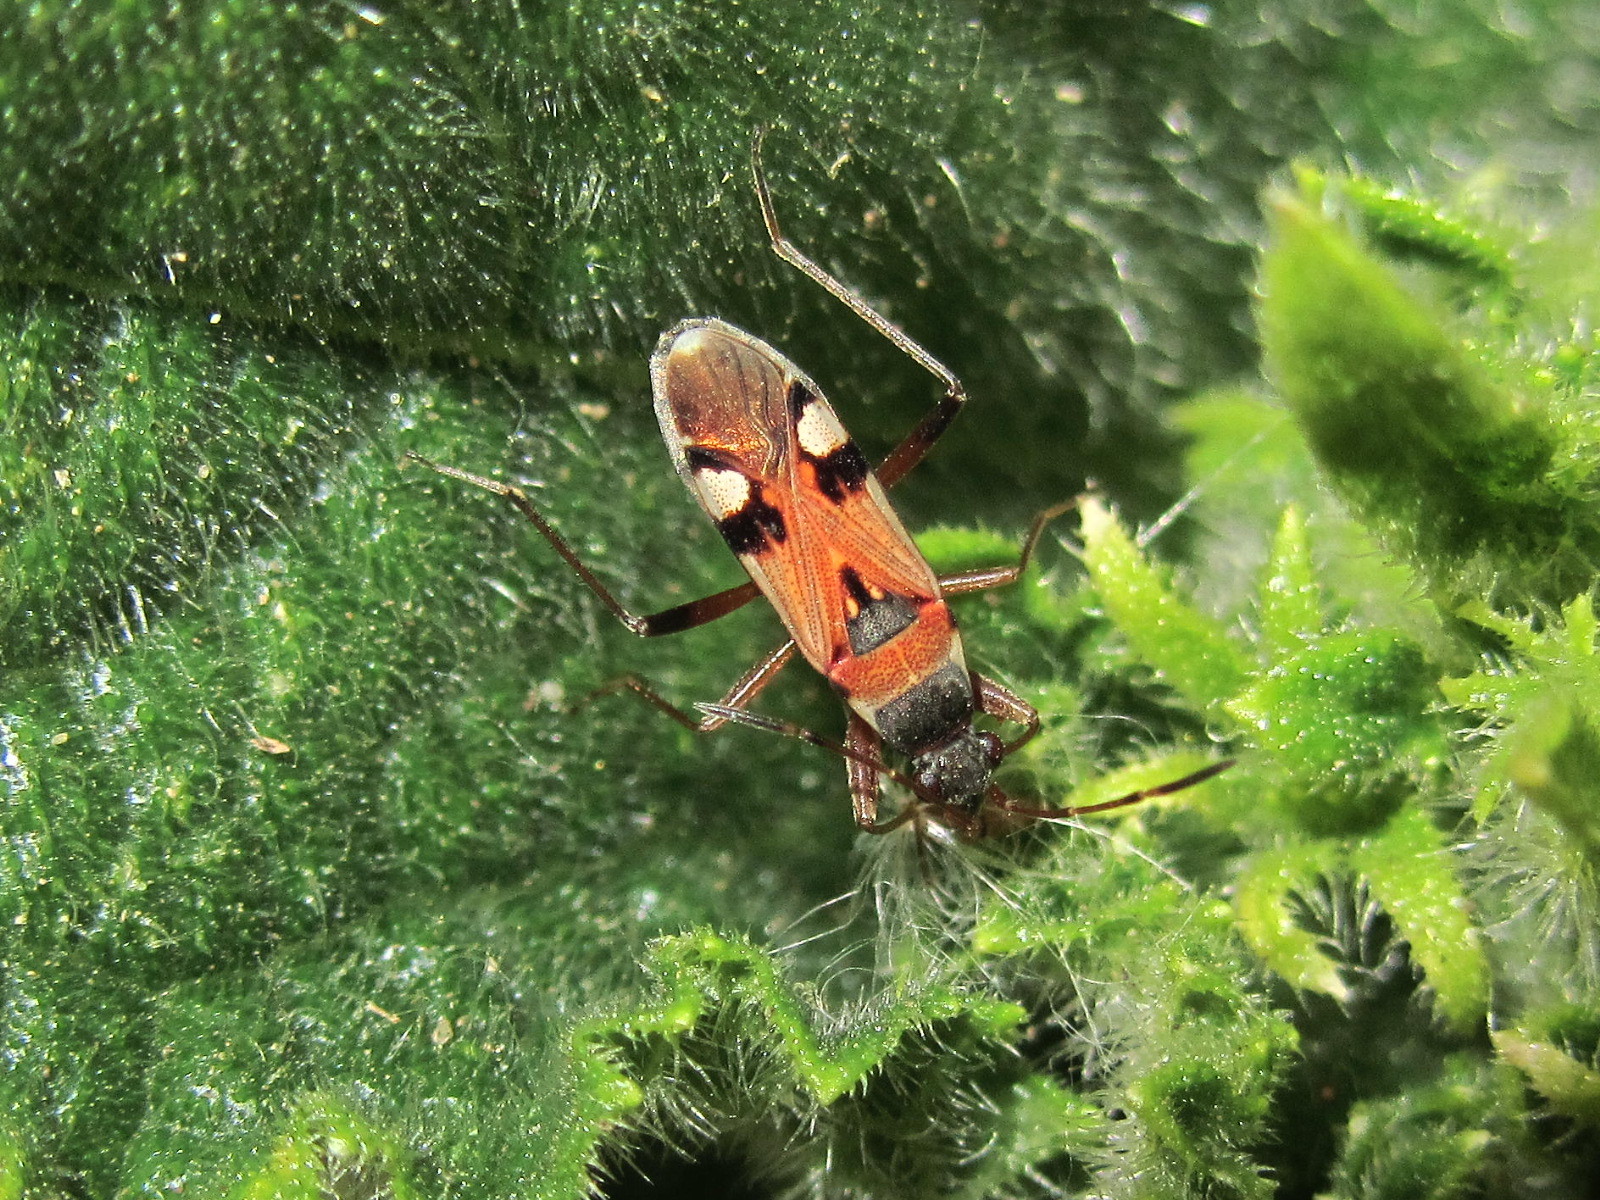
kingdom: Animalia
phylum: Arthropoda
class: Insecta
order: Hemiptera
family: Rhyparochromidae
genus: Beosus
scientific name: Beosus quadripunctatus
